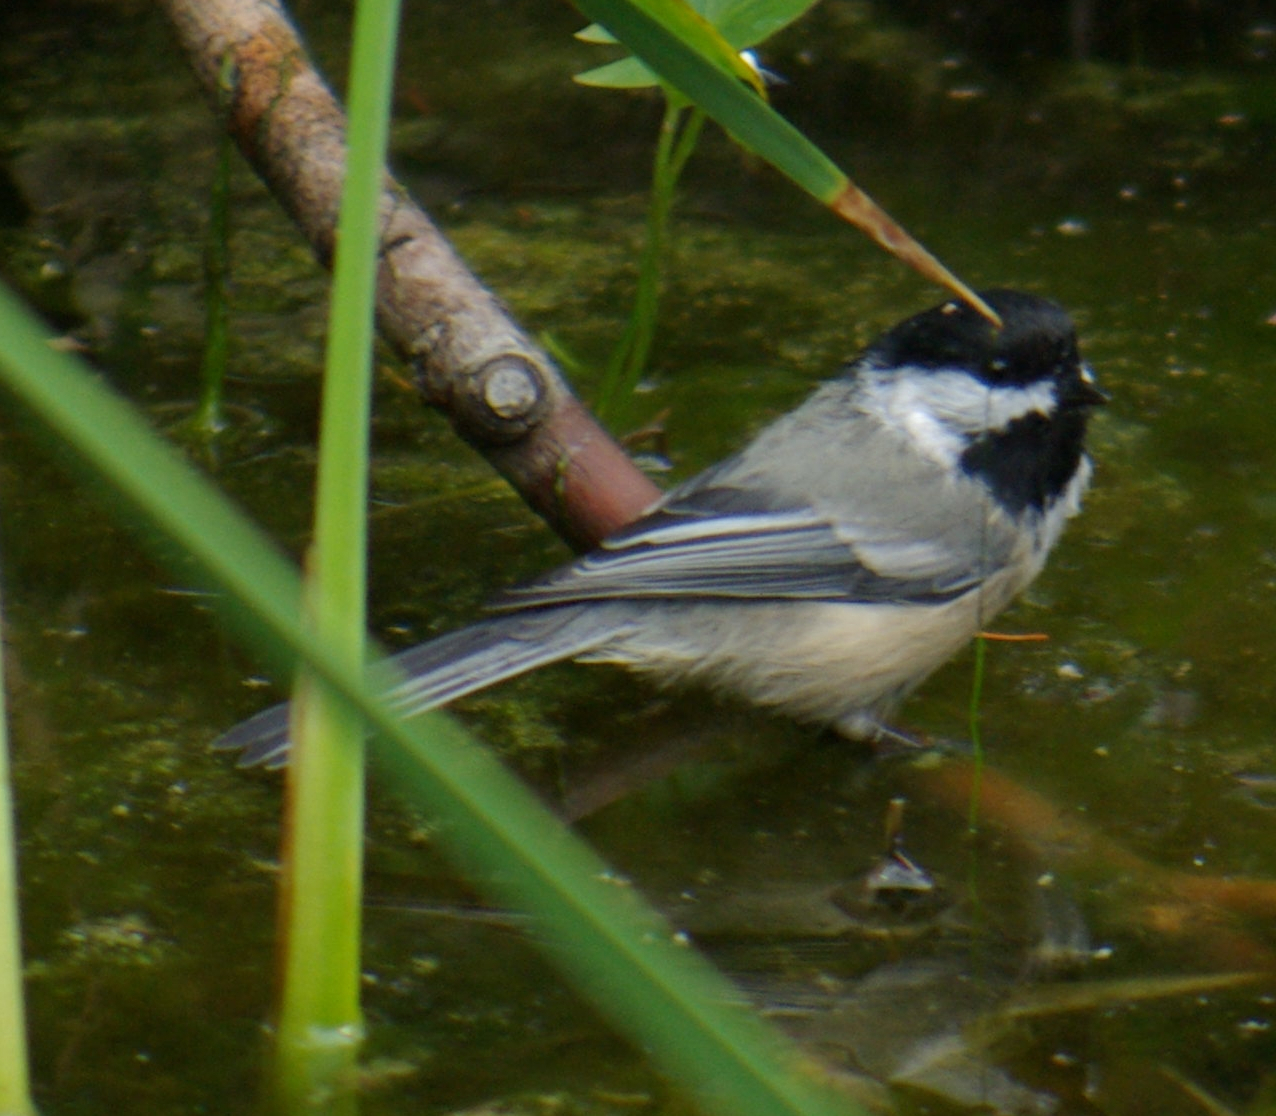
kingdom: Animalia
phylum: Chordata
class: Aves
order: Passeriformes
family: Paridae
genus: Poecile
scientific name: Poecile atricapillus
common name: Black-capped chickadee
